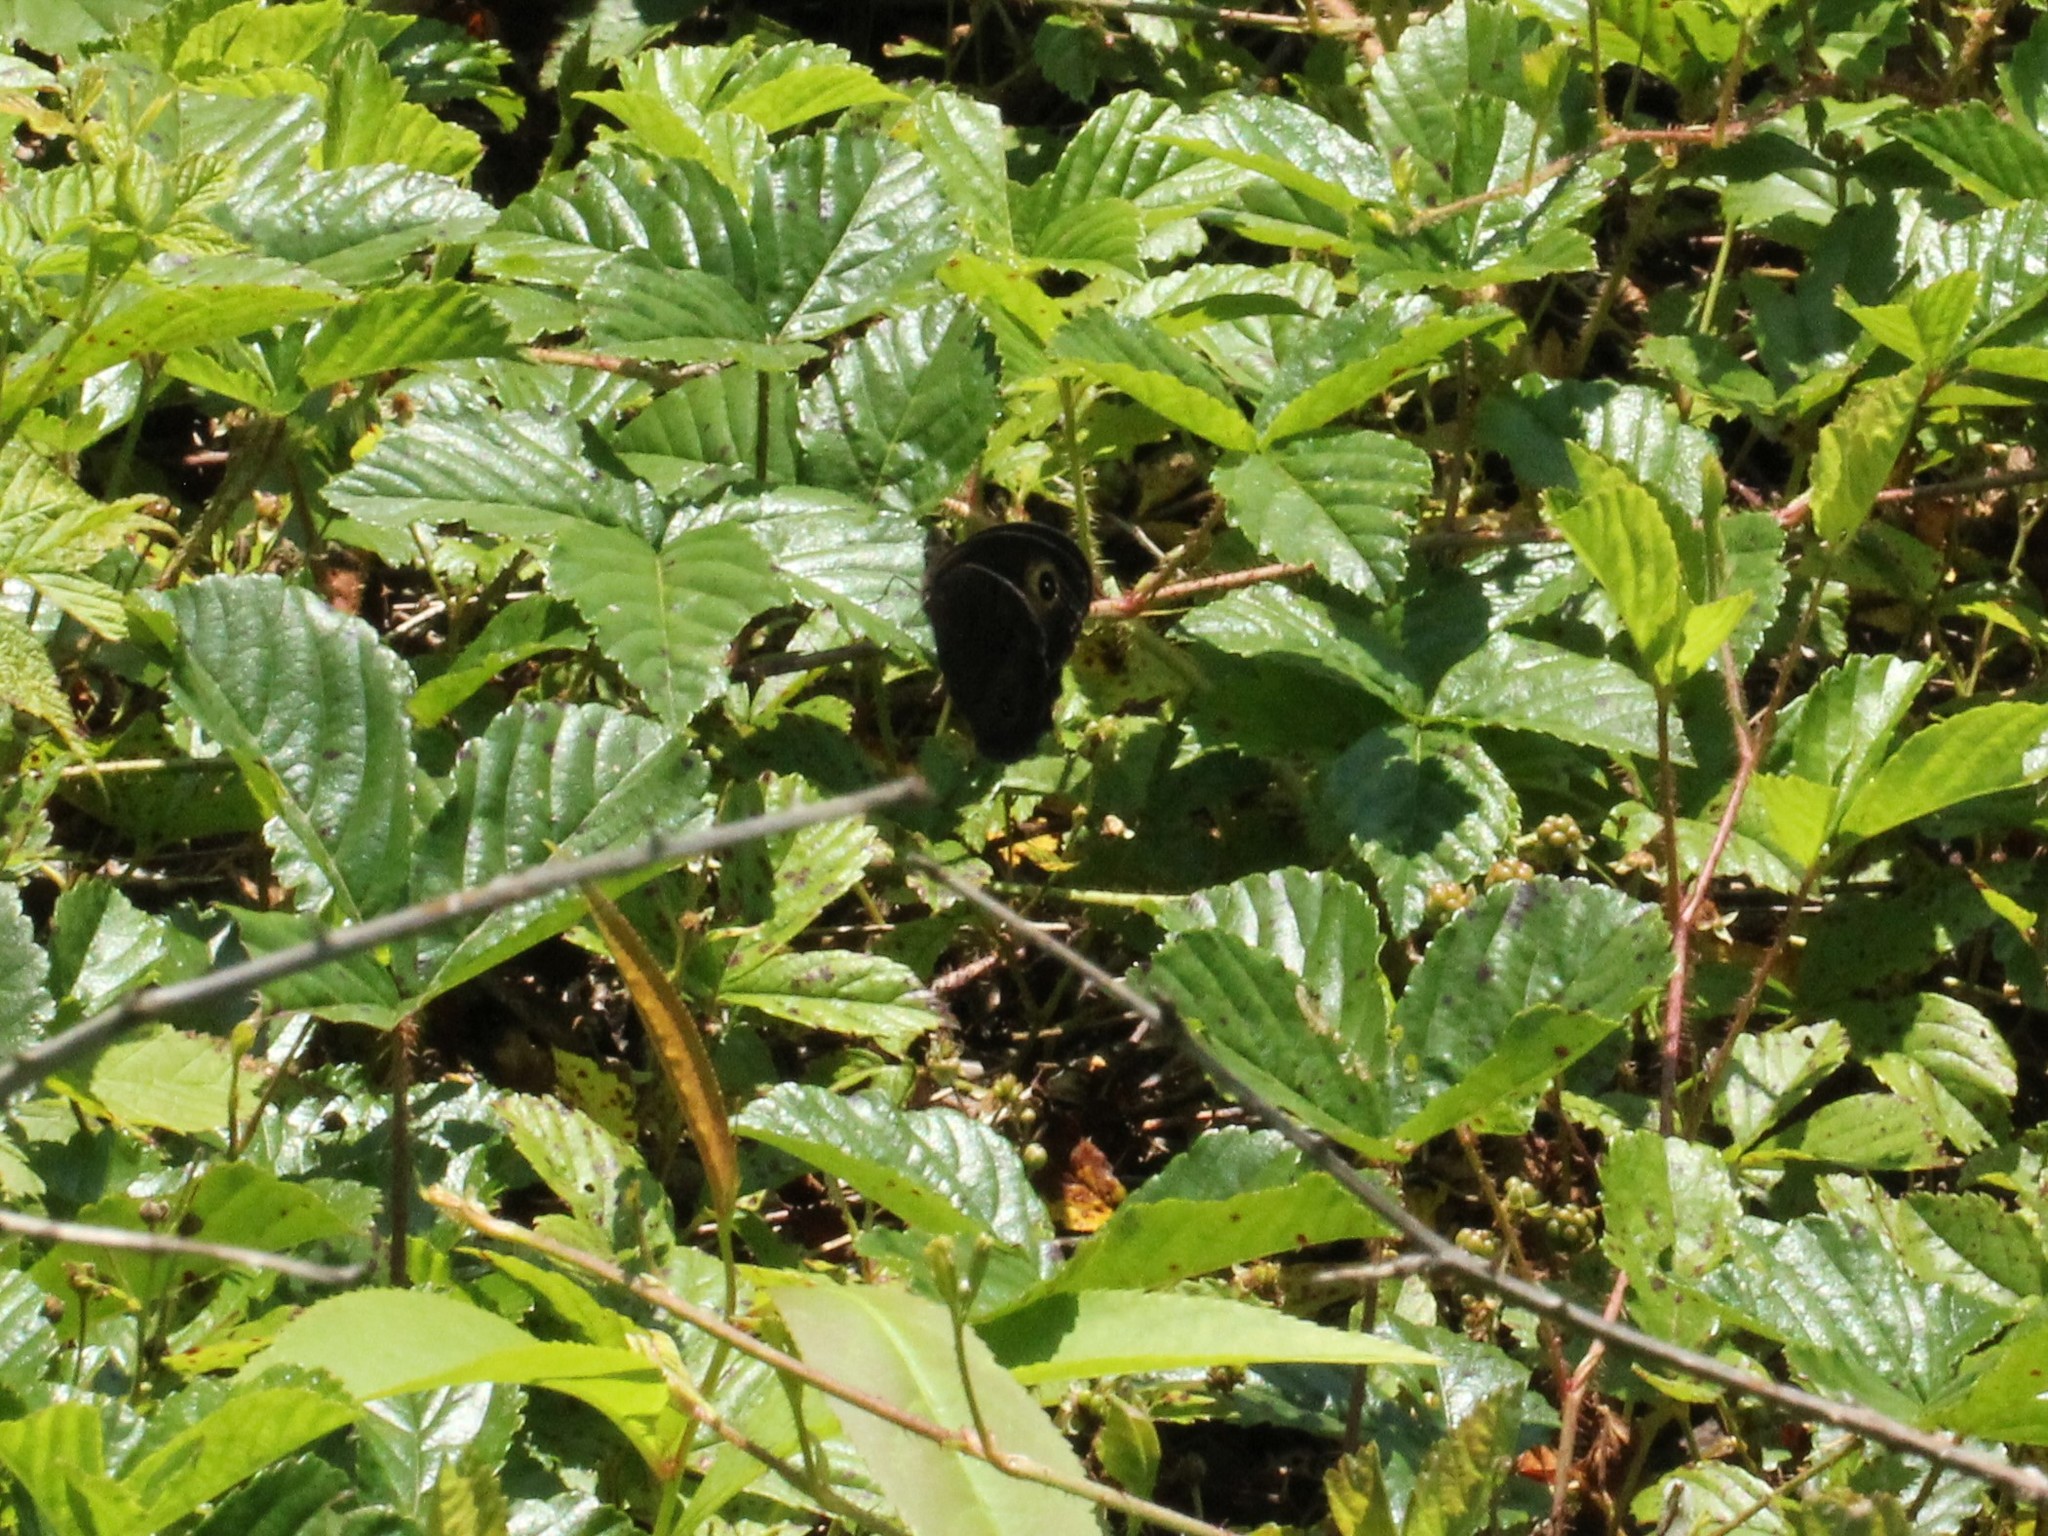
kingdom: Animalia
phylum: Arthropoda
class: Insecta
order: Lepidoptera
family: Nymphalidae
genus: Cercyonis
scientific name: Cercyonis pegala
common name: Common wood-nymph
